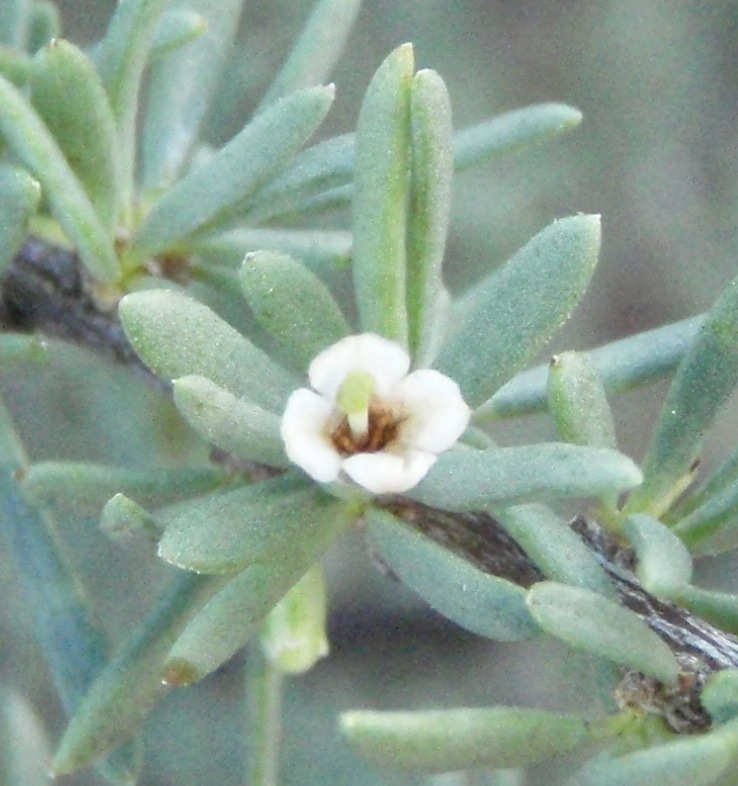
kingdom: Plantae
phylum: Tracheophyta
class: Magnoliopsida
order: Solanales
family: Solanaceae
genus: Lycium
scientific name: Lycium horridum
